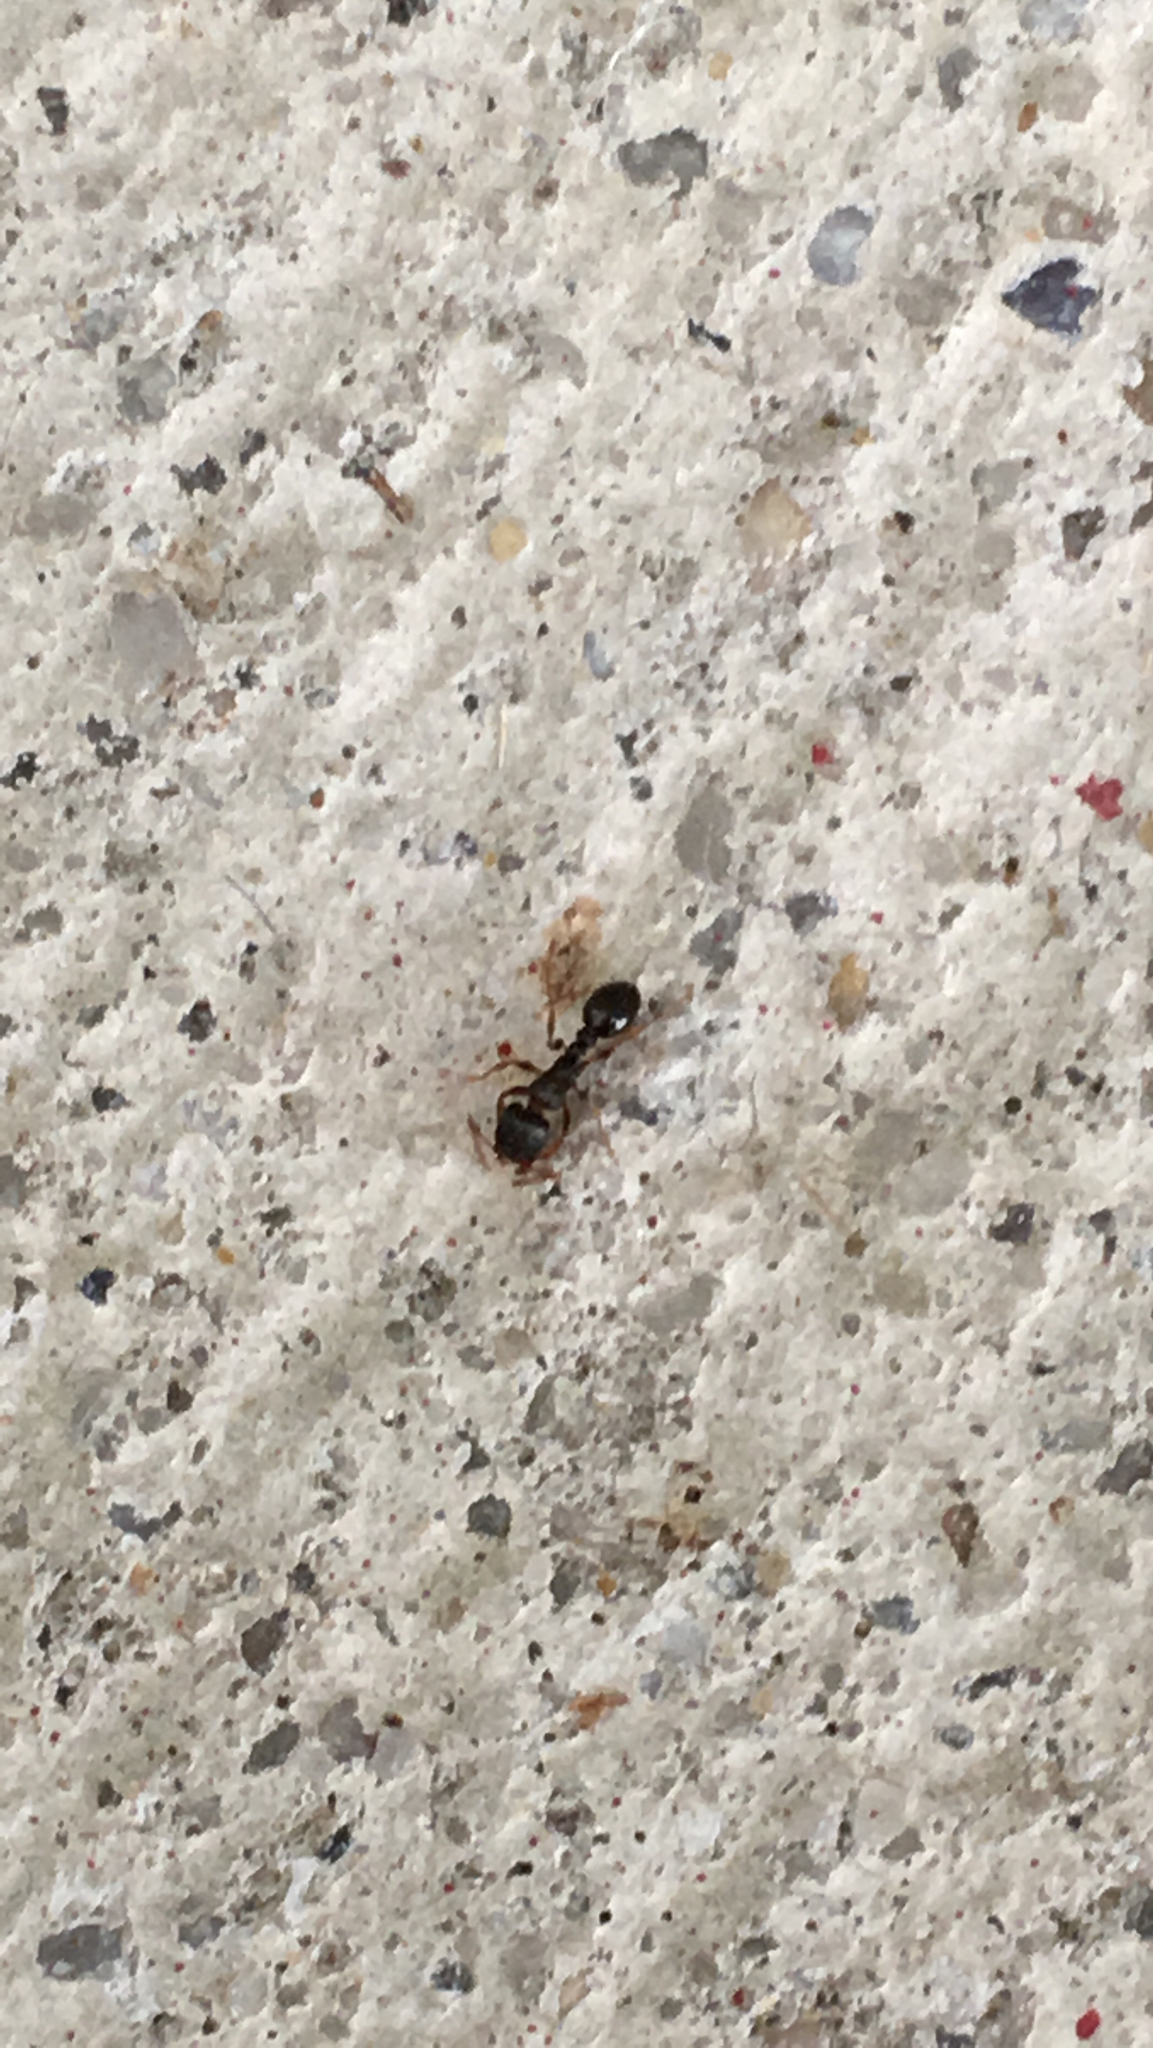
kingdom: Animalia
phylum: Arthropoda
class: Insecta
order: Hymenoptera
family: Formicidae
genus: Tetramorium
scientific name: Tetramorium immigrans
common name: Pavement ant
